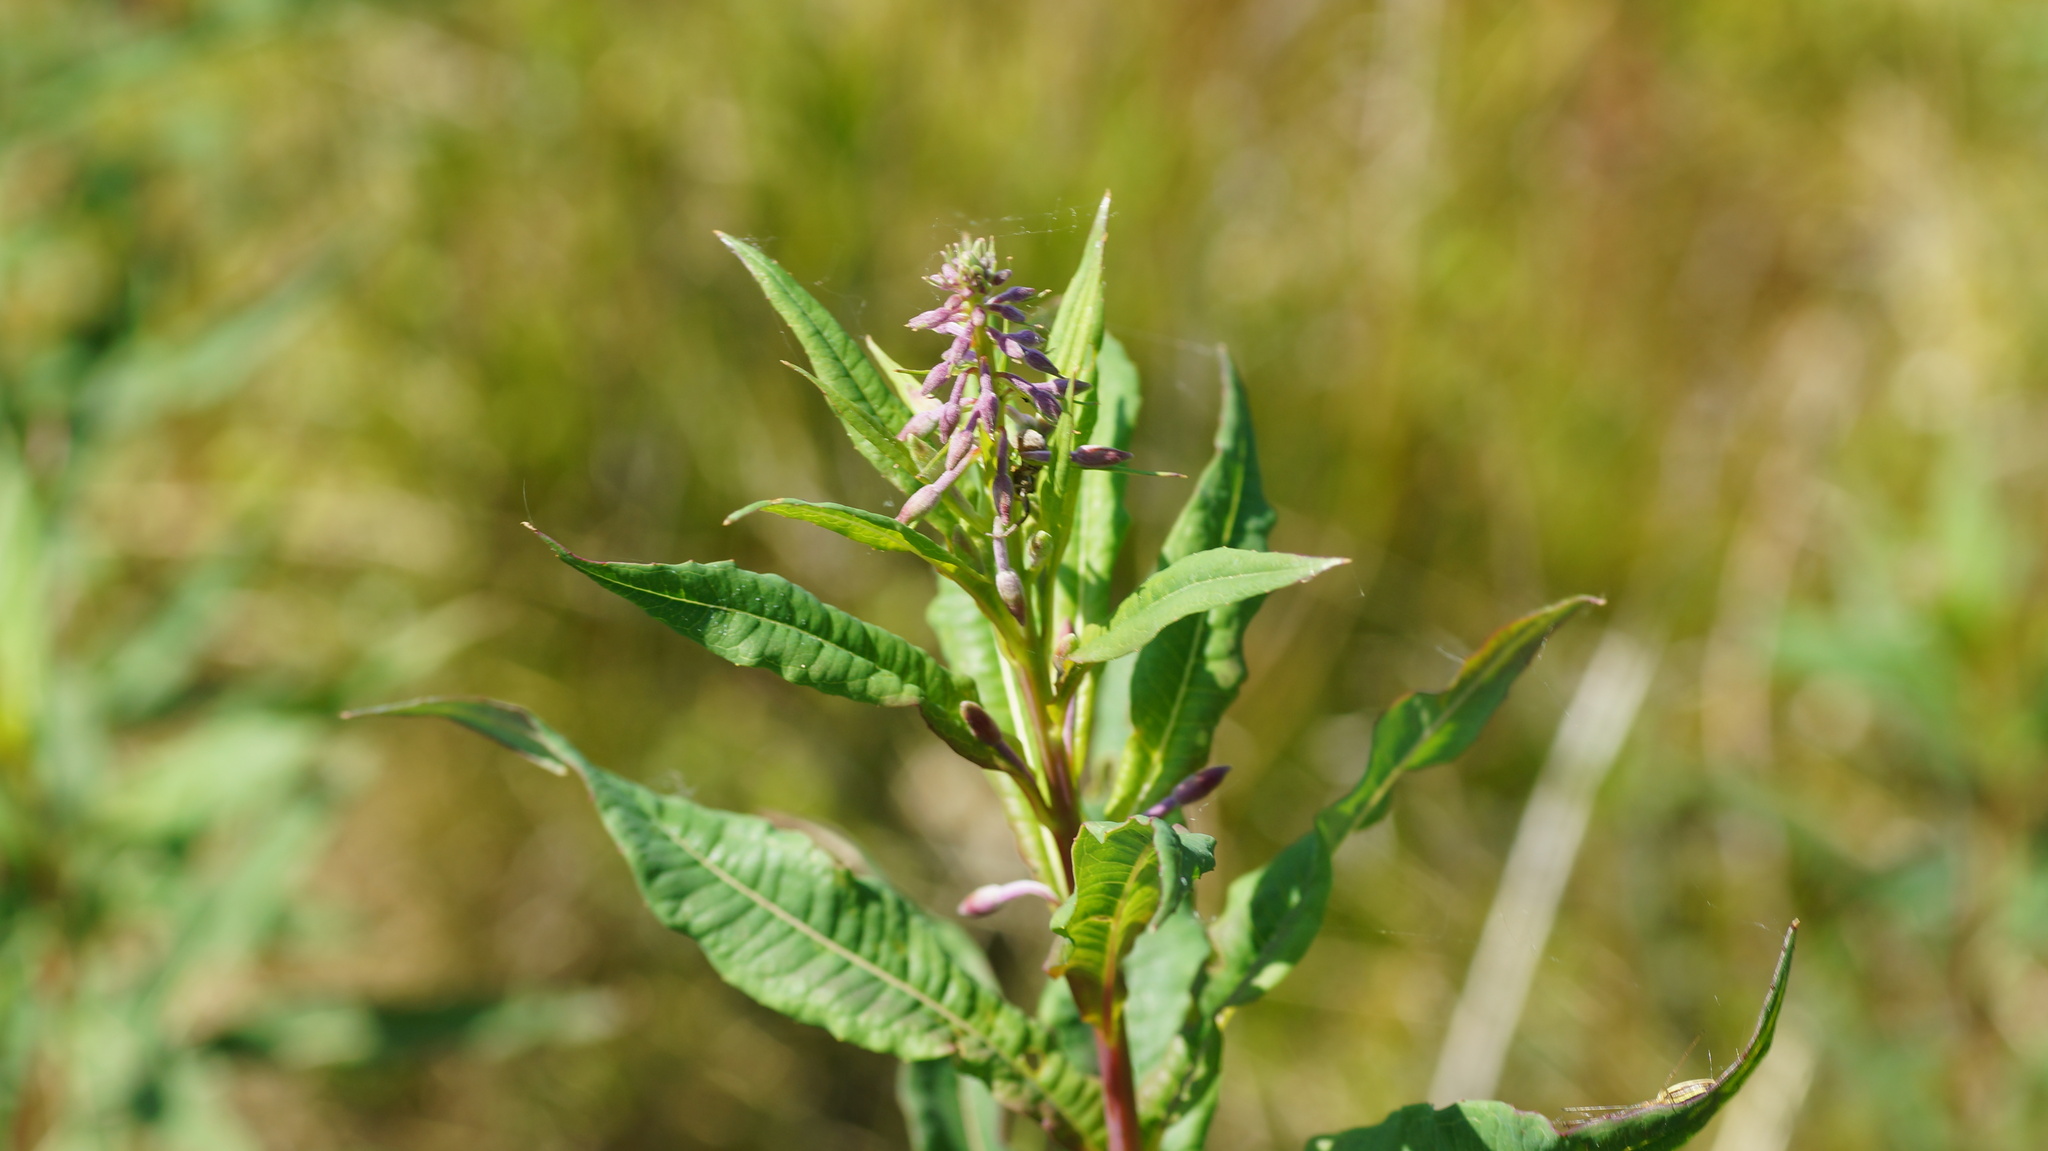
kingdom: Plantae
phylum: Tracheophyta
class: Magnoliopsida
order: Myrtales
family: Onagraceae
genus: Chamaenerion
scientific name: Chamaenerion angustifolium
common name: Fireweed
